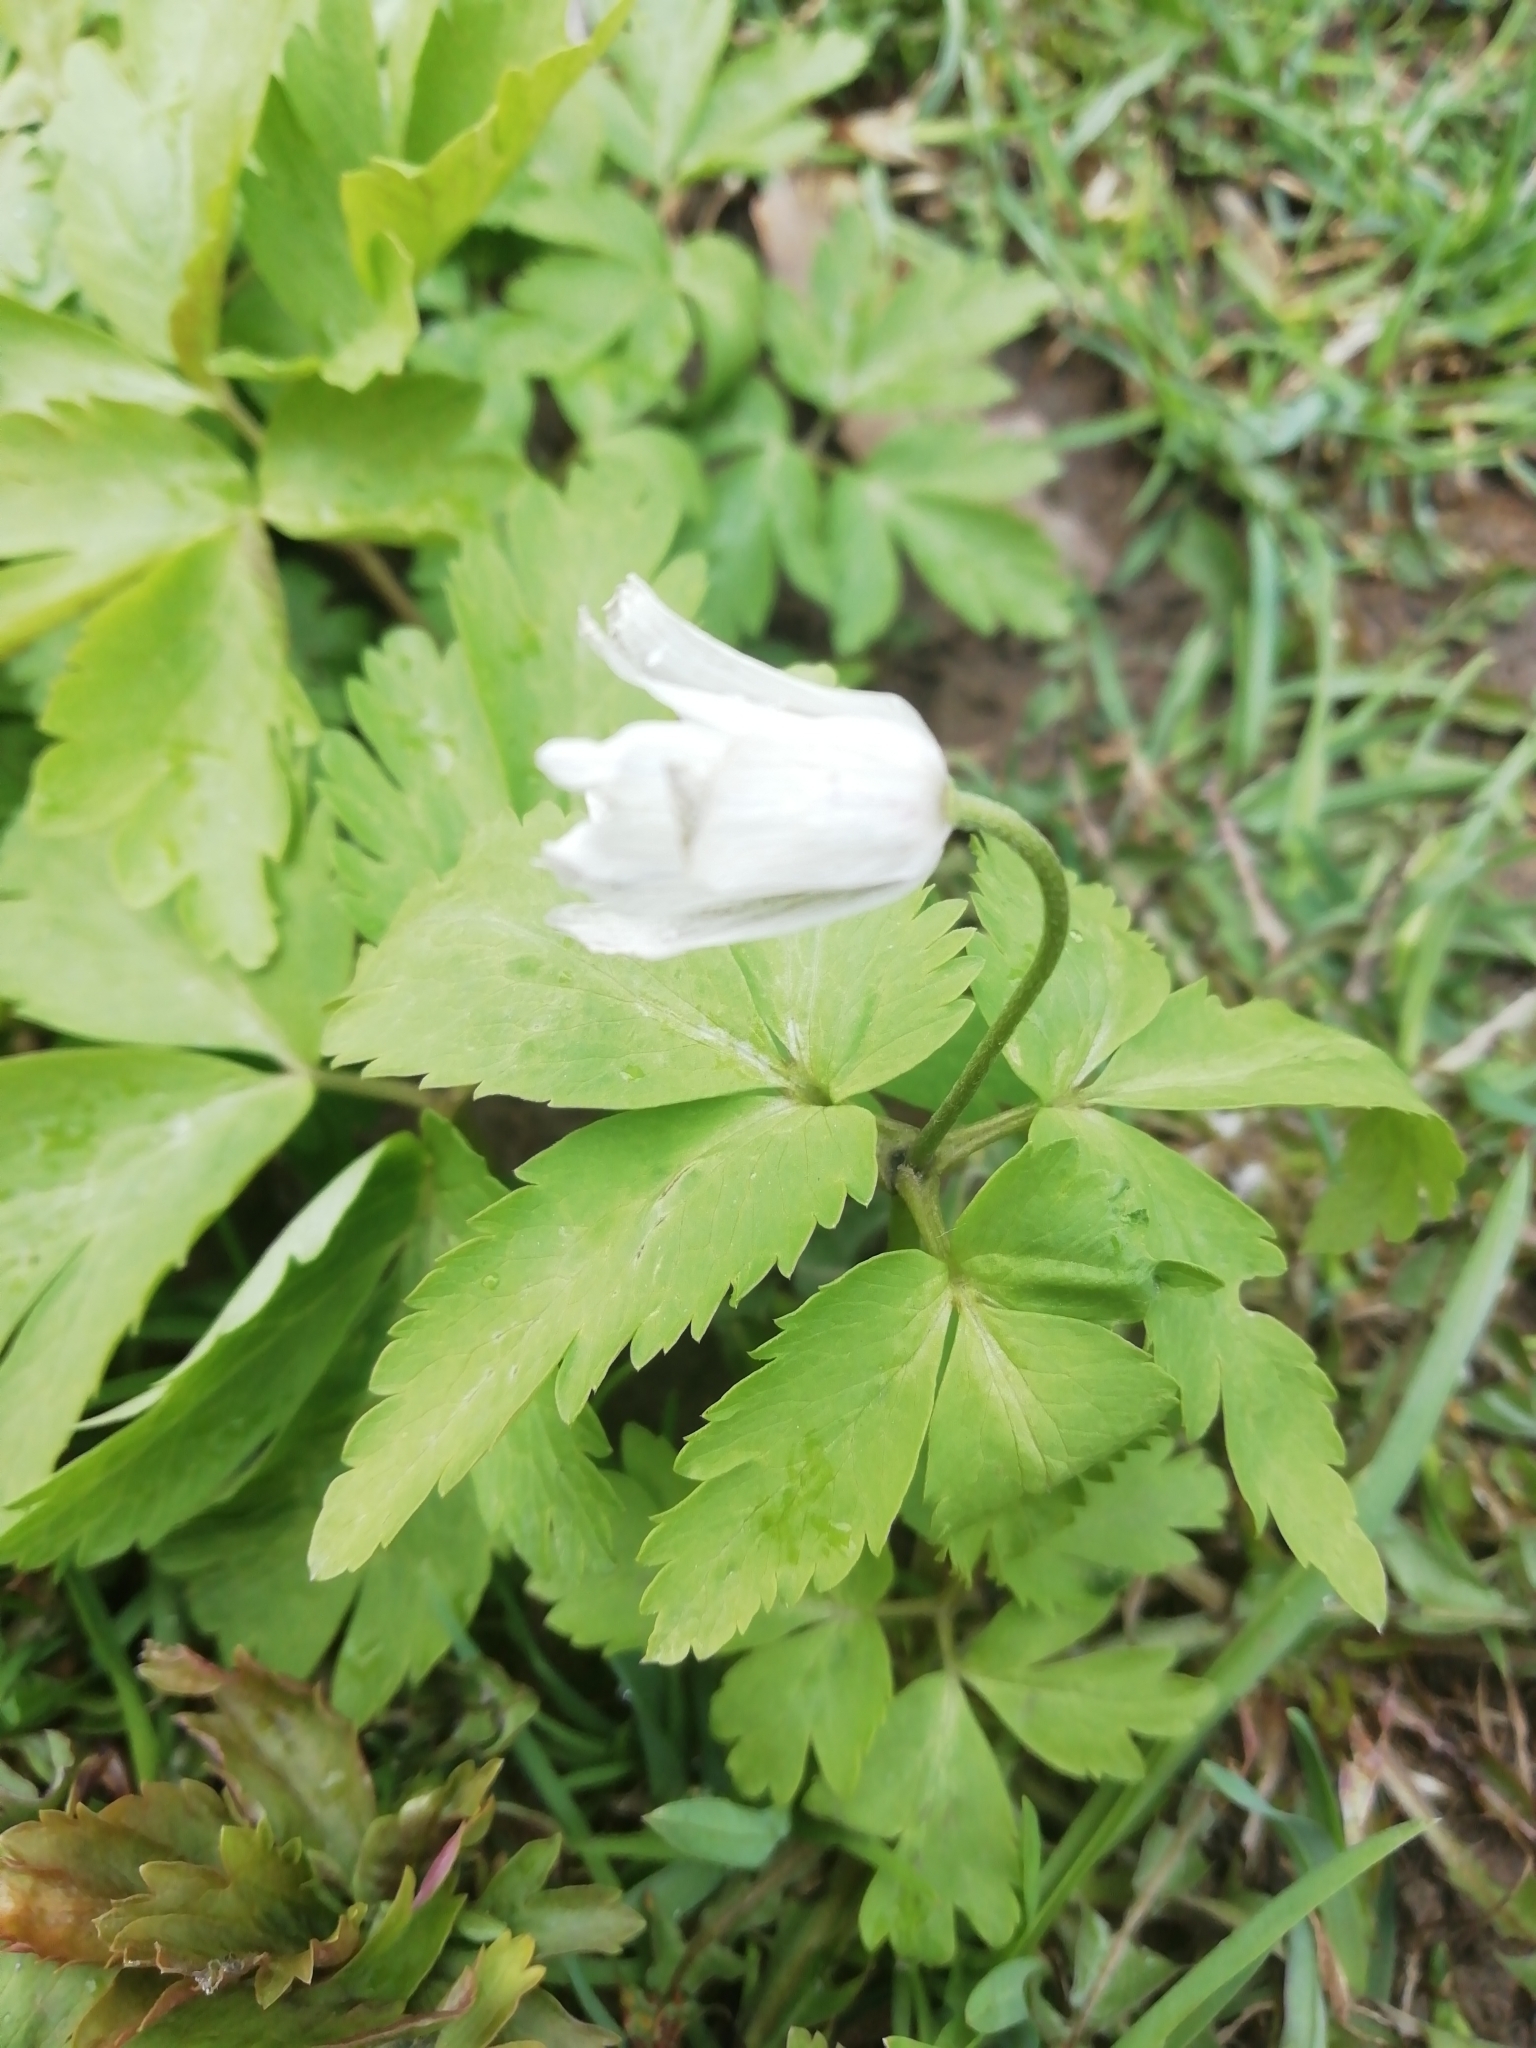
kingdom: Plantae
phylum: Tracheophyta
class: Magnoliopsida
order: Ranunculales
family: Ranunculaceae
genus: Anemone
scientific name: Anemone altaica
